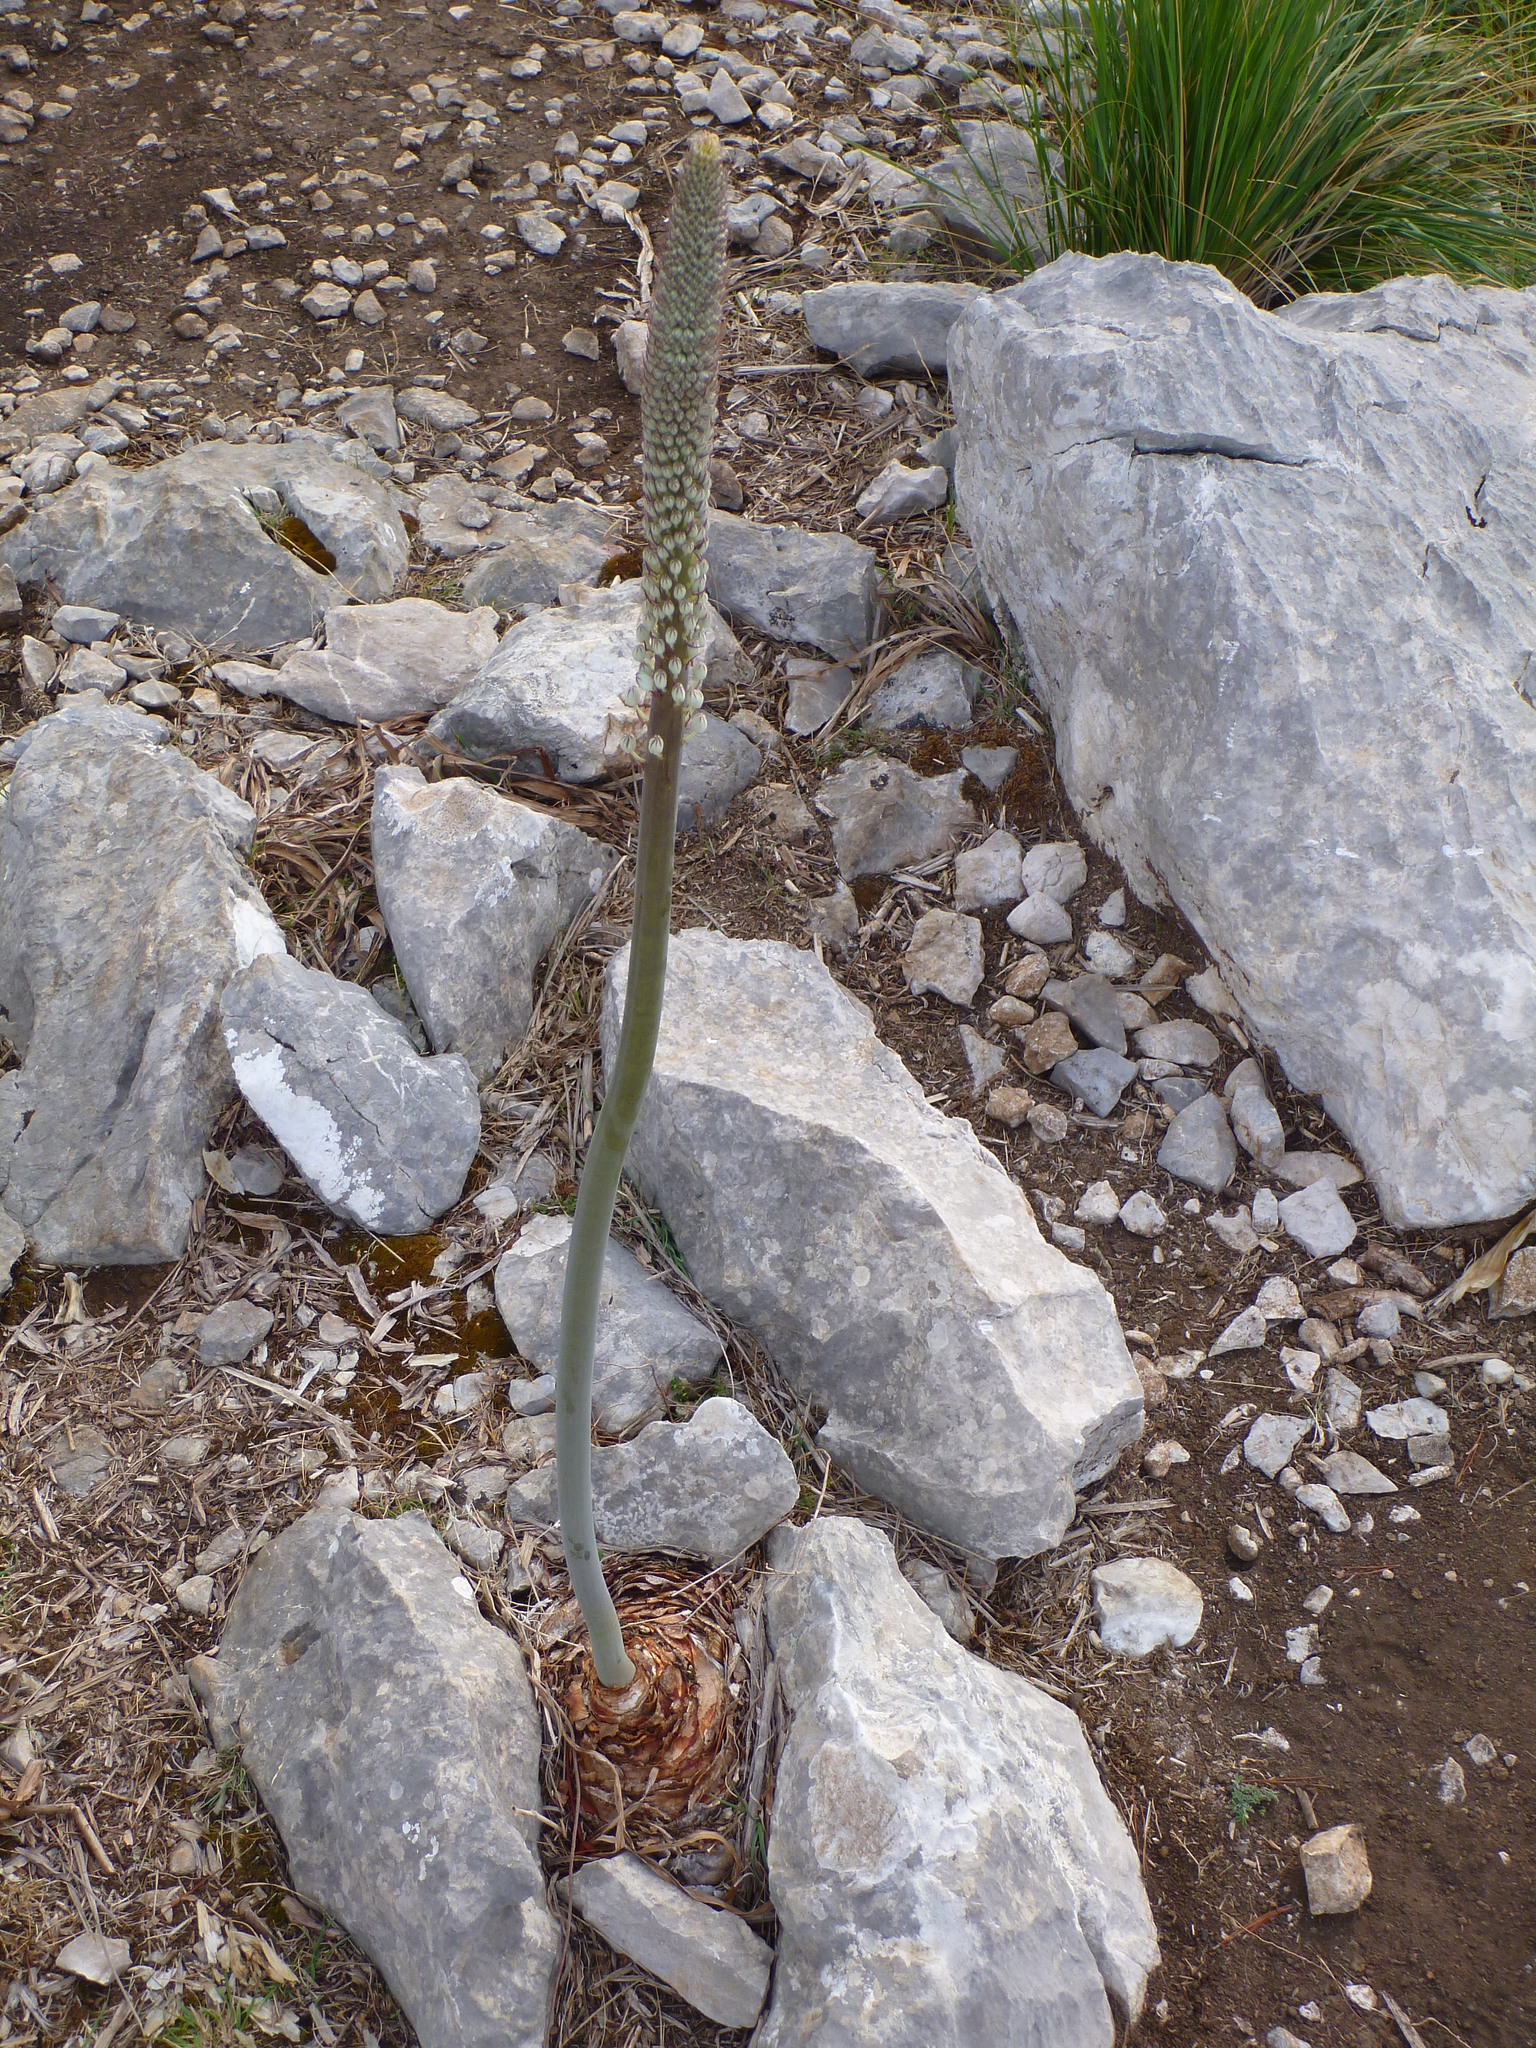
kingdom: Plantae
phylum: Tracheophyta
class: Liliopsida
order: Asparagales
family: Asparagaceae
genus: Drimia
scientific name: Drimia maritima
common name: Maritime squill
